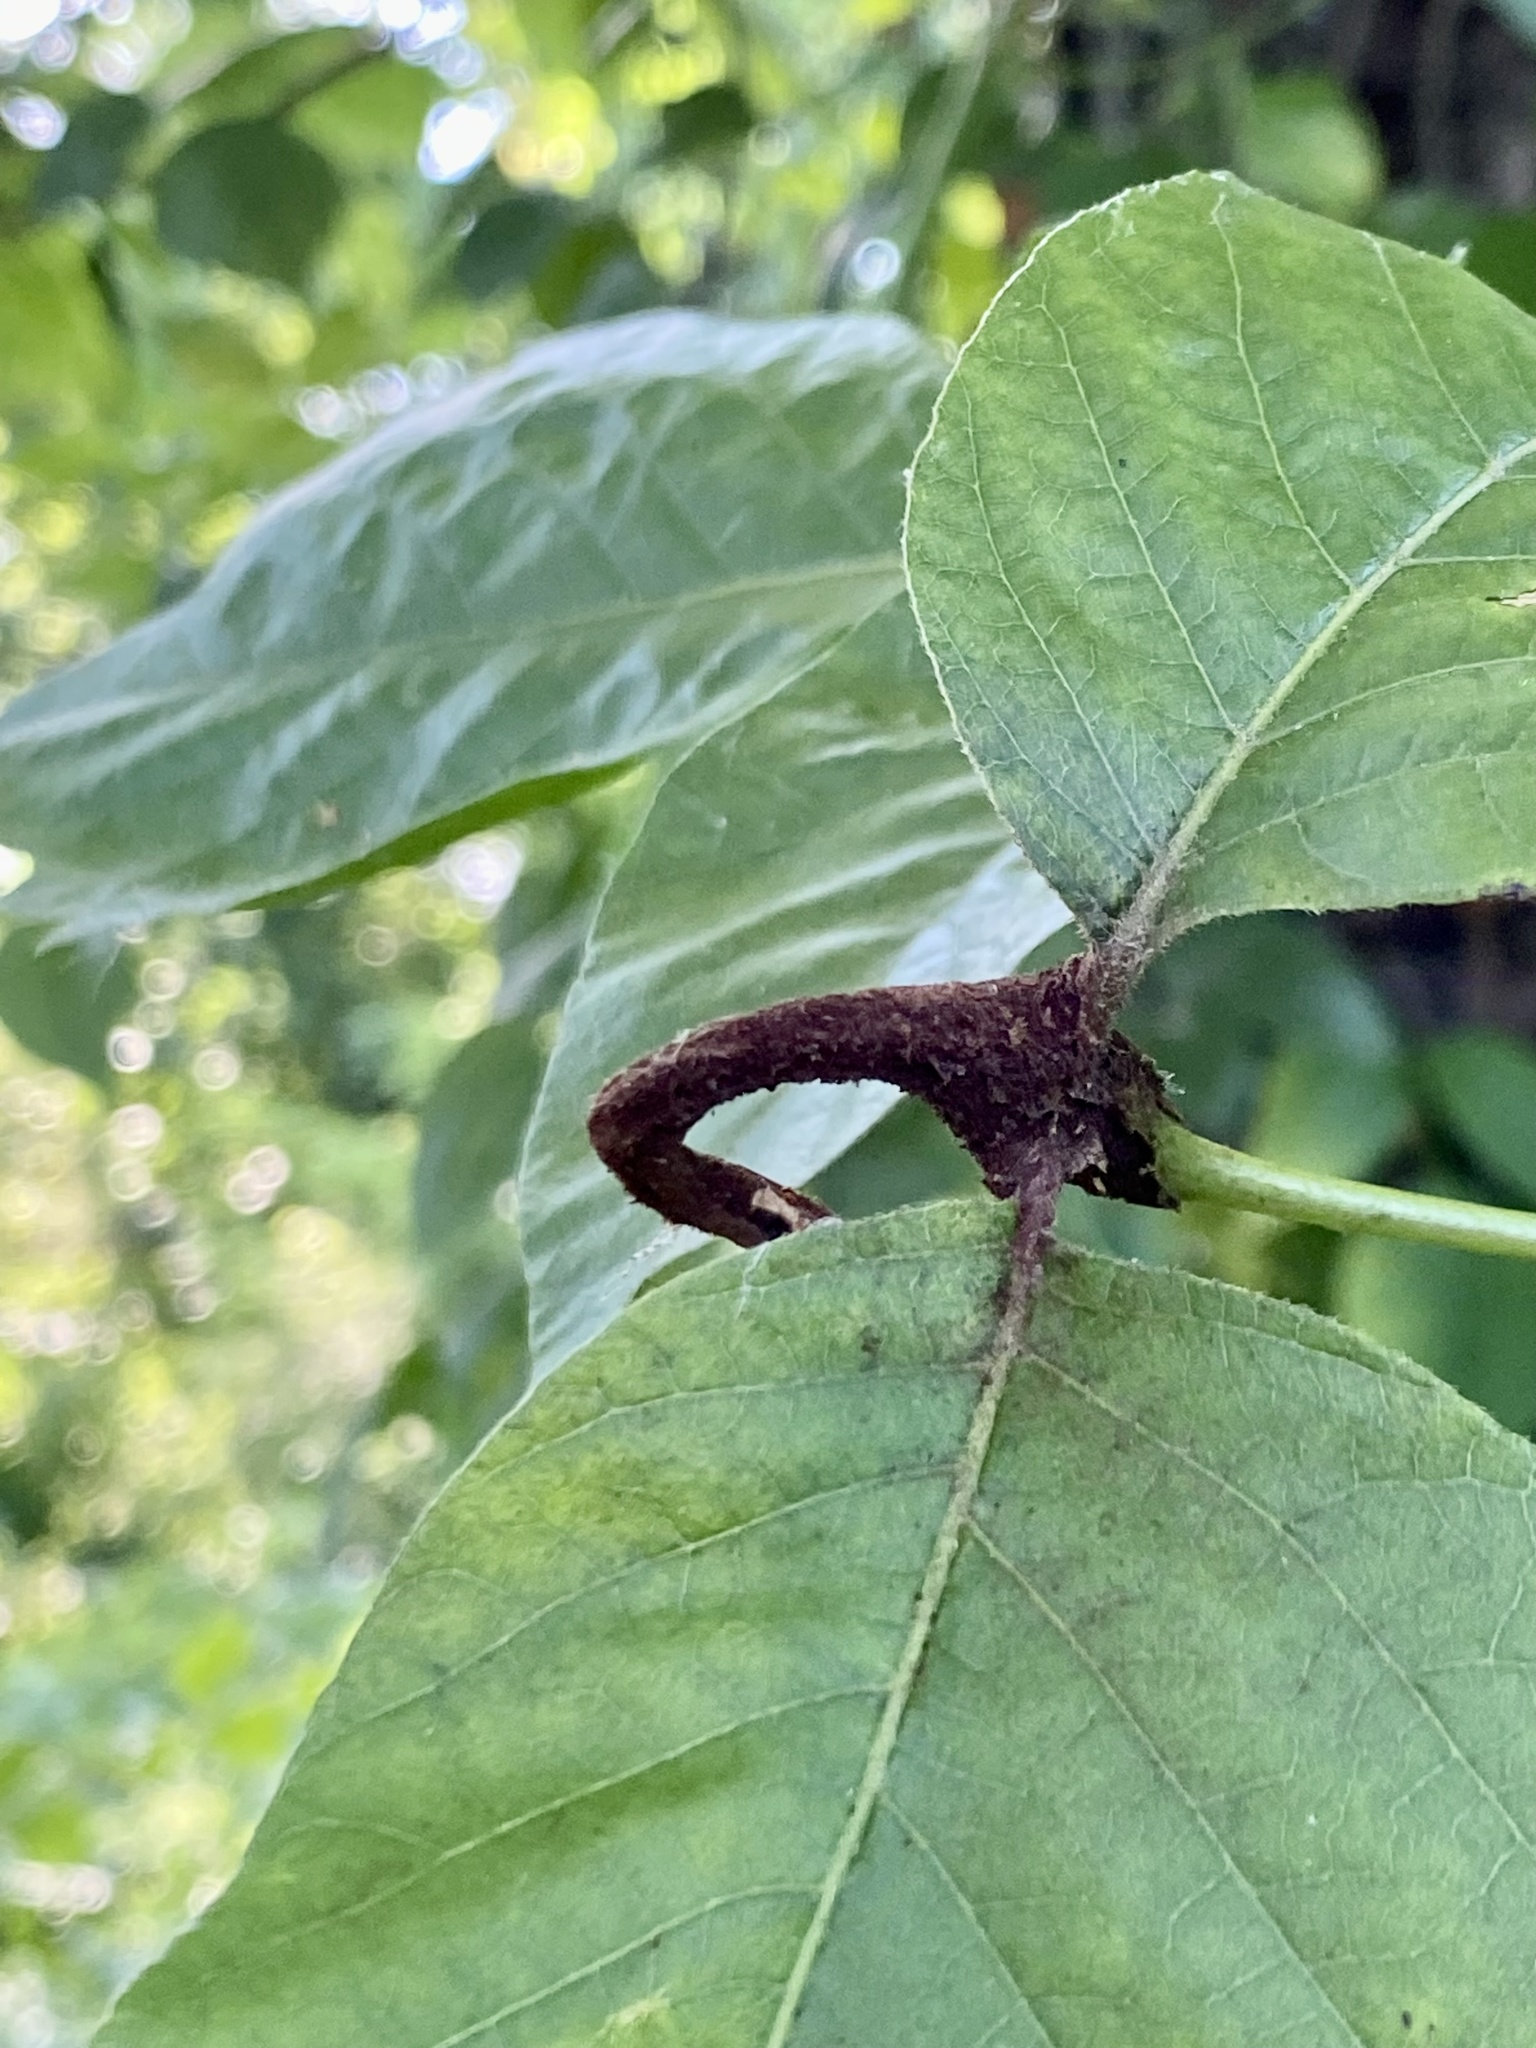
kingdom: Fungi
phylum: Basidiomycota
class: Pucciniomycetes
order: Pucciniales
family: Pileolariaceae
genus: Pileolaria
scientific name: Pileolaria brevipes
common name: Poison ivy rust
